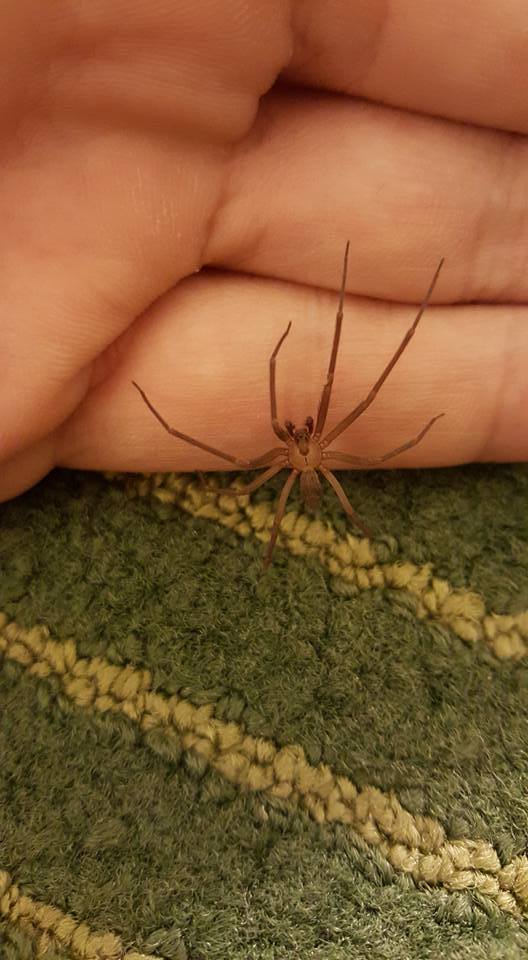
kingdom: Animalia
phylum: Arthropoda
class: Arachnida
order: Araneae
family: Sicariidae
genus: Loxosceles
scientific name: Loxosceles reclusa
